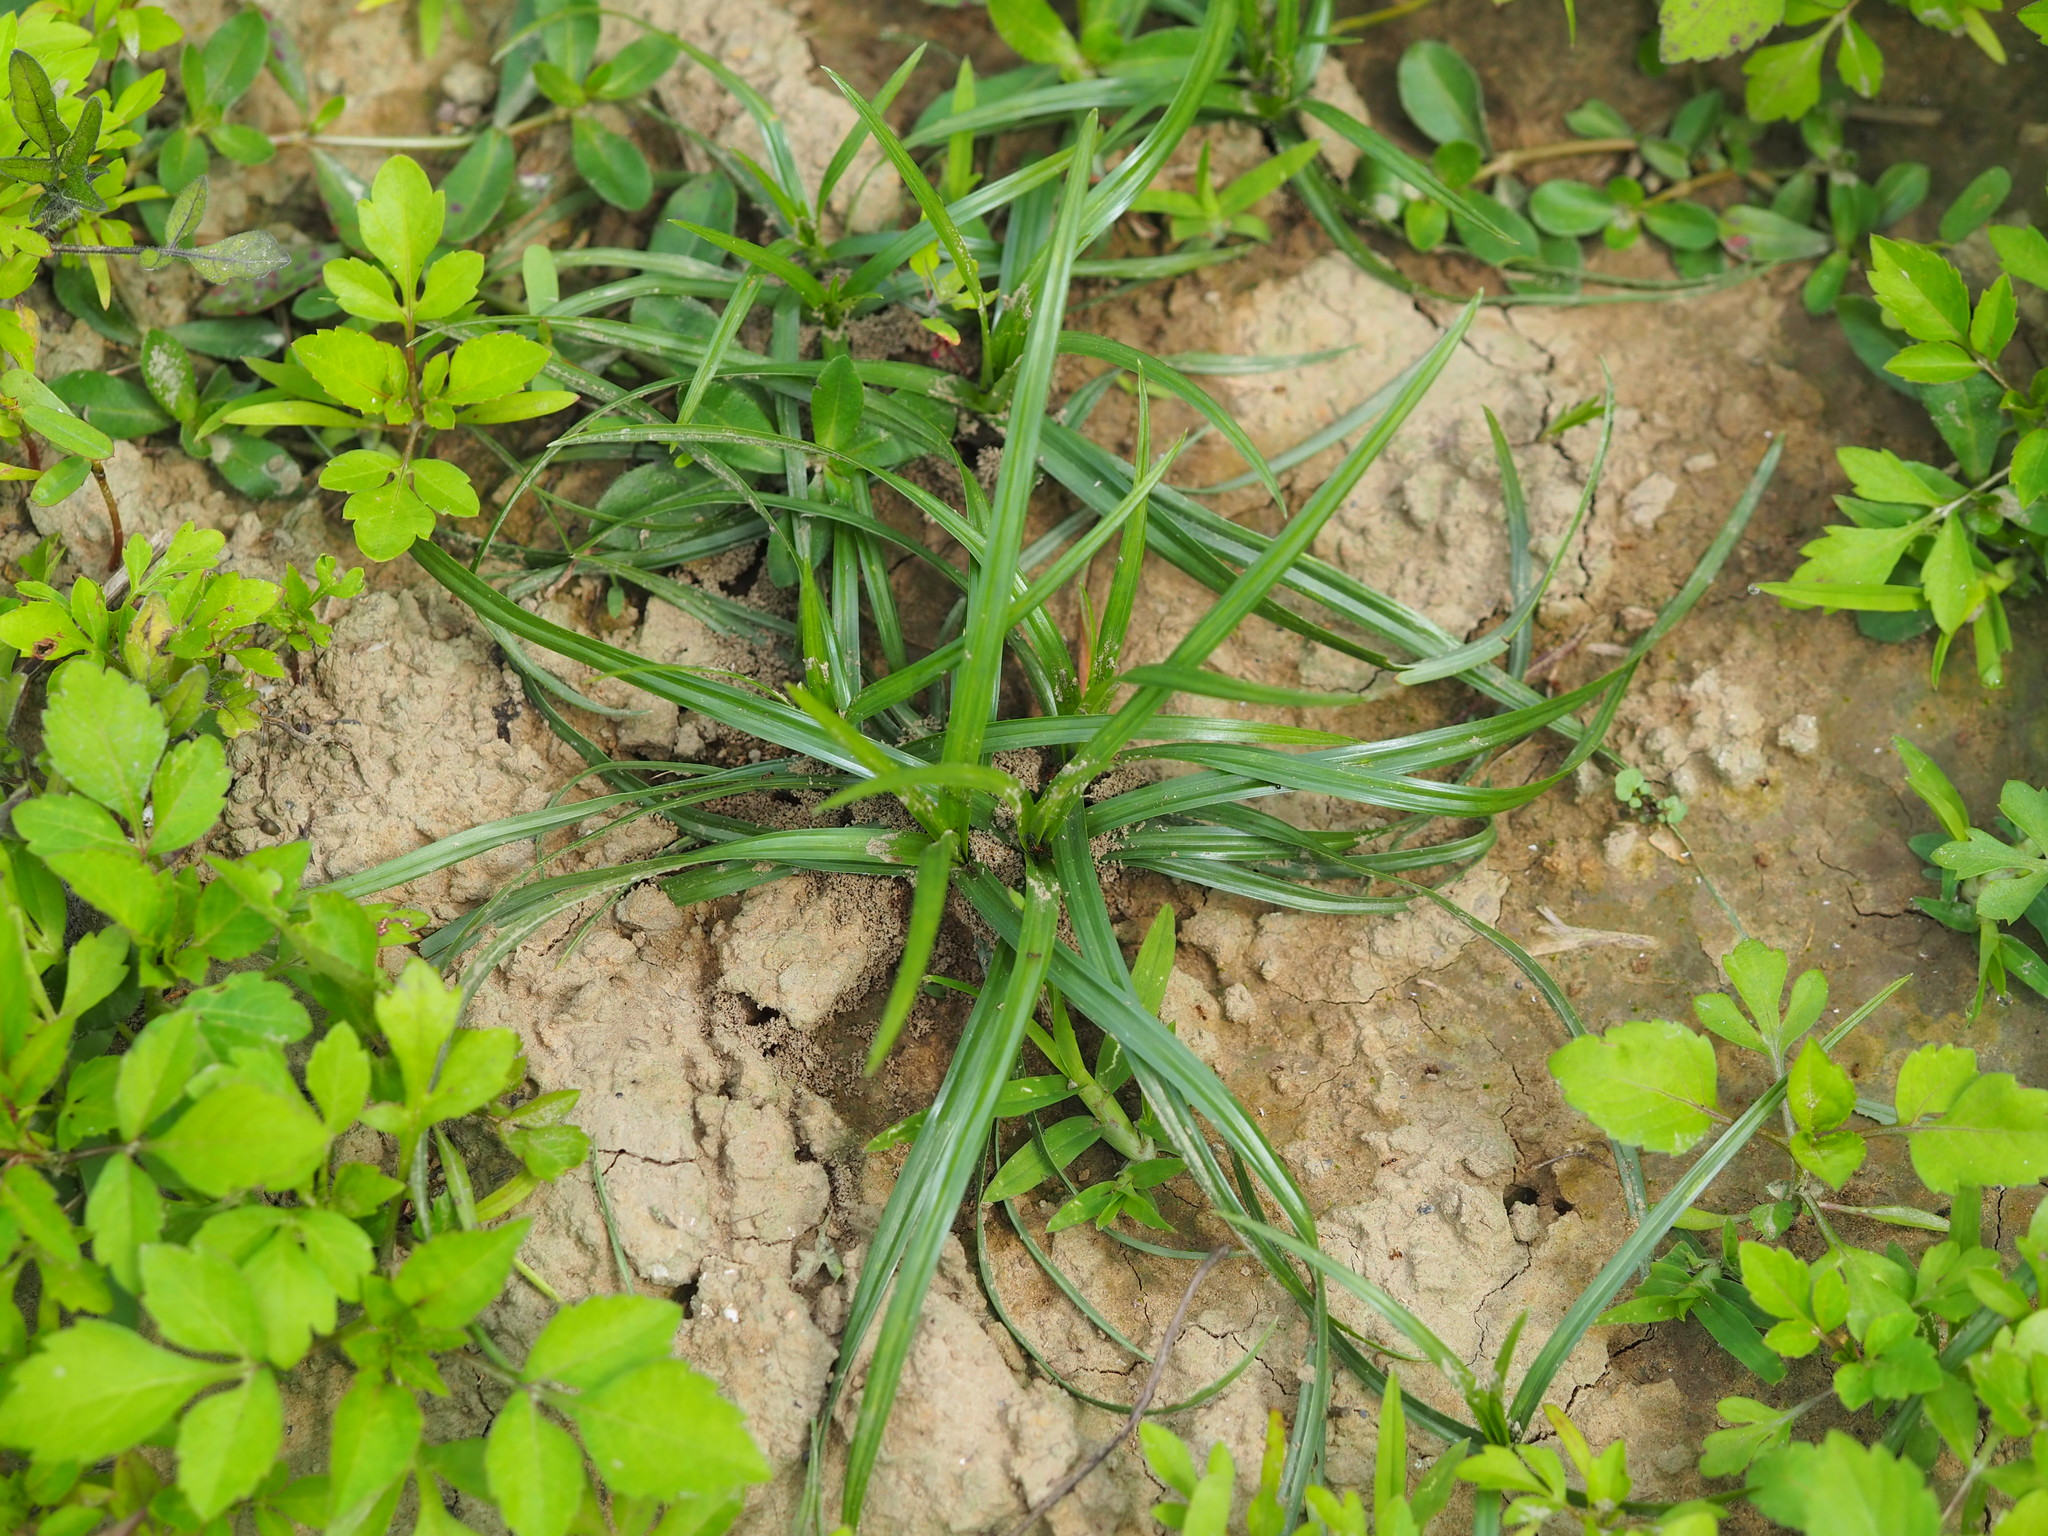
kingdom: Plantae
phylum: Tracheophyta
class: Liliopsida
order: Poales
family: Cyperaceae
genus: Cyperus
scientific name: Cyperus rotundus
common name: Nutgrass
